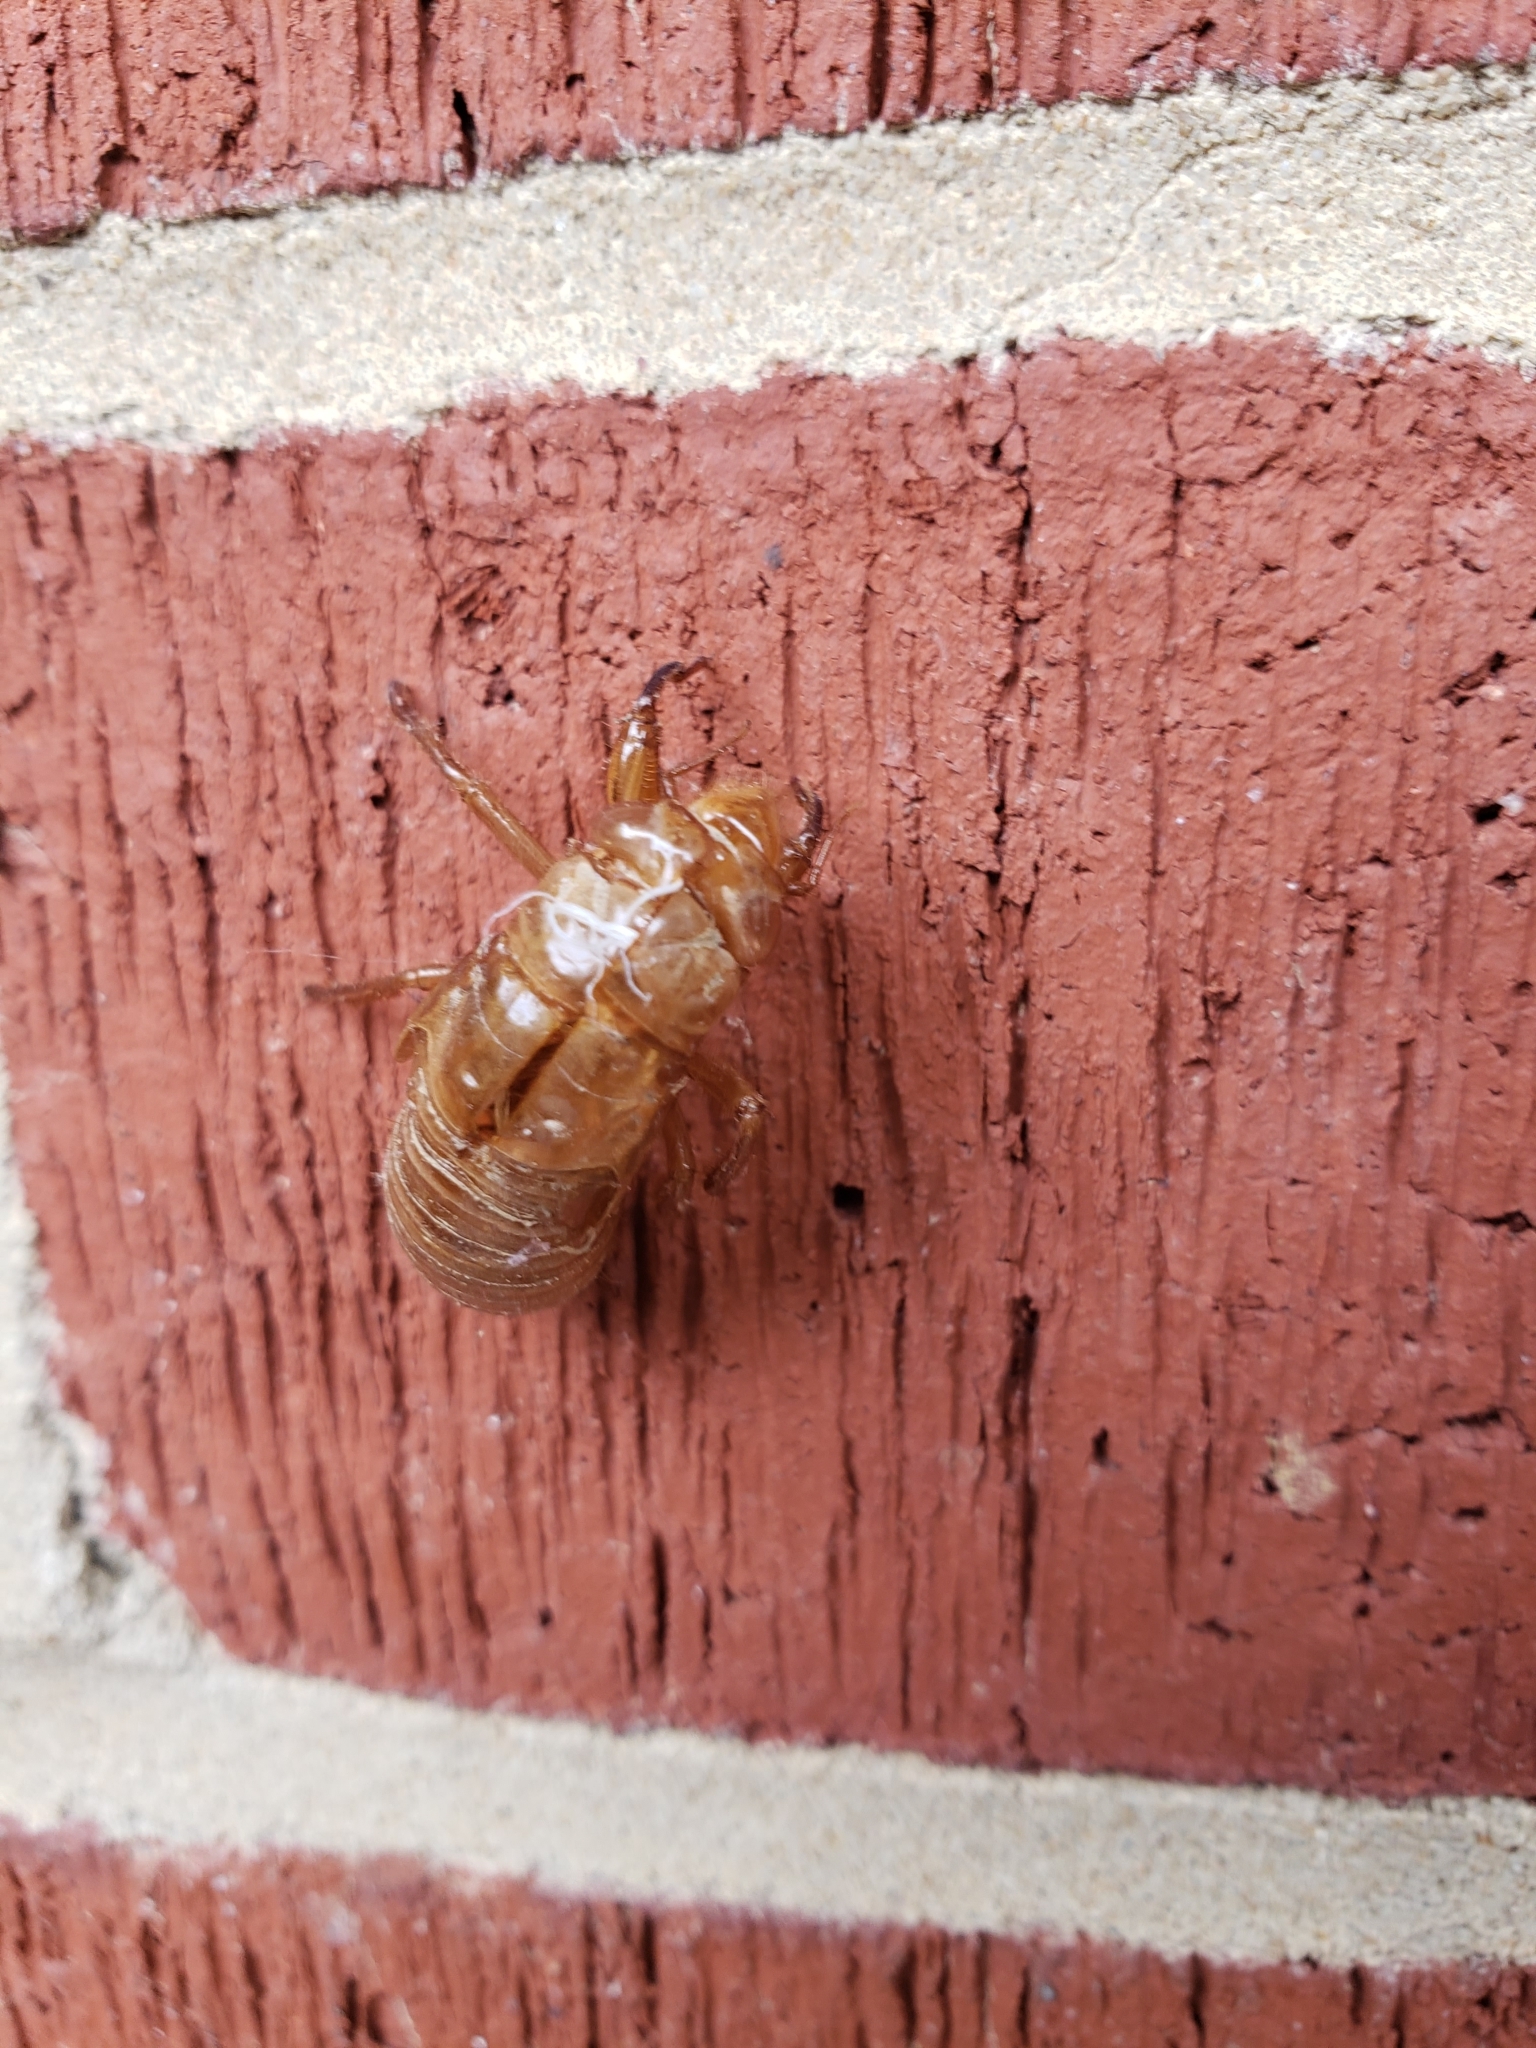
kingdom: Animalia
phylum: Arthropoda
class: Insecta
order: Hemiptera
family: Cicadidae
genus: Magicicada
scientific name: Magicicada
